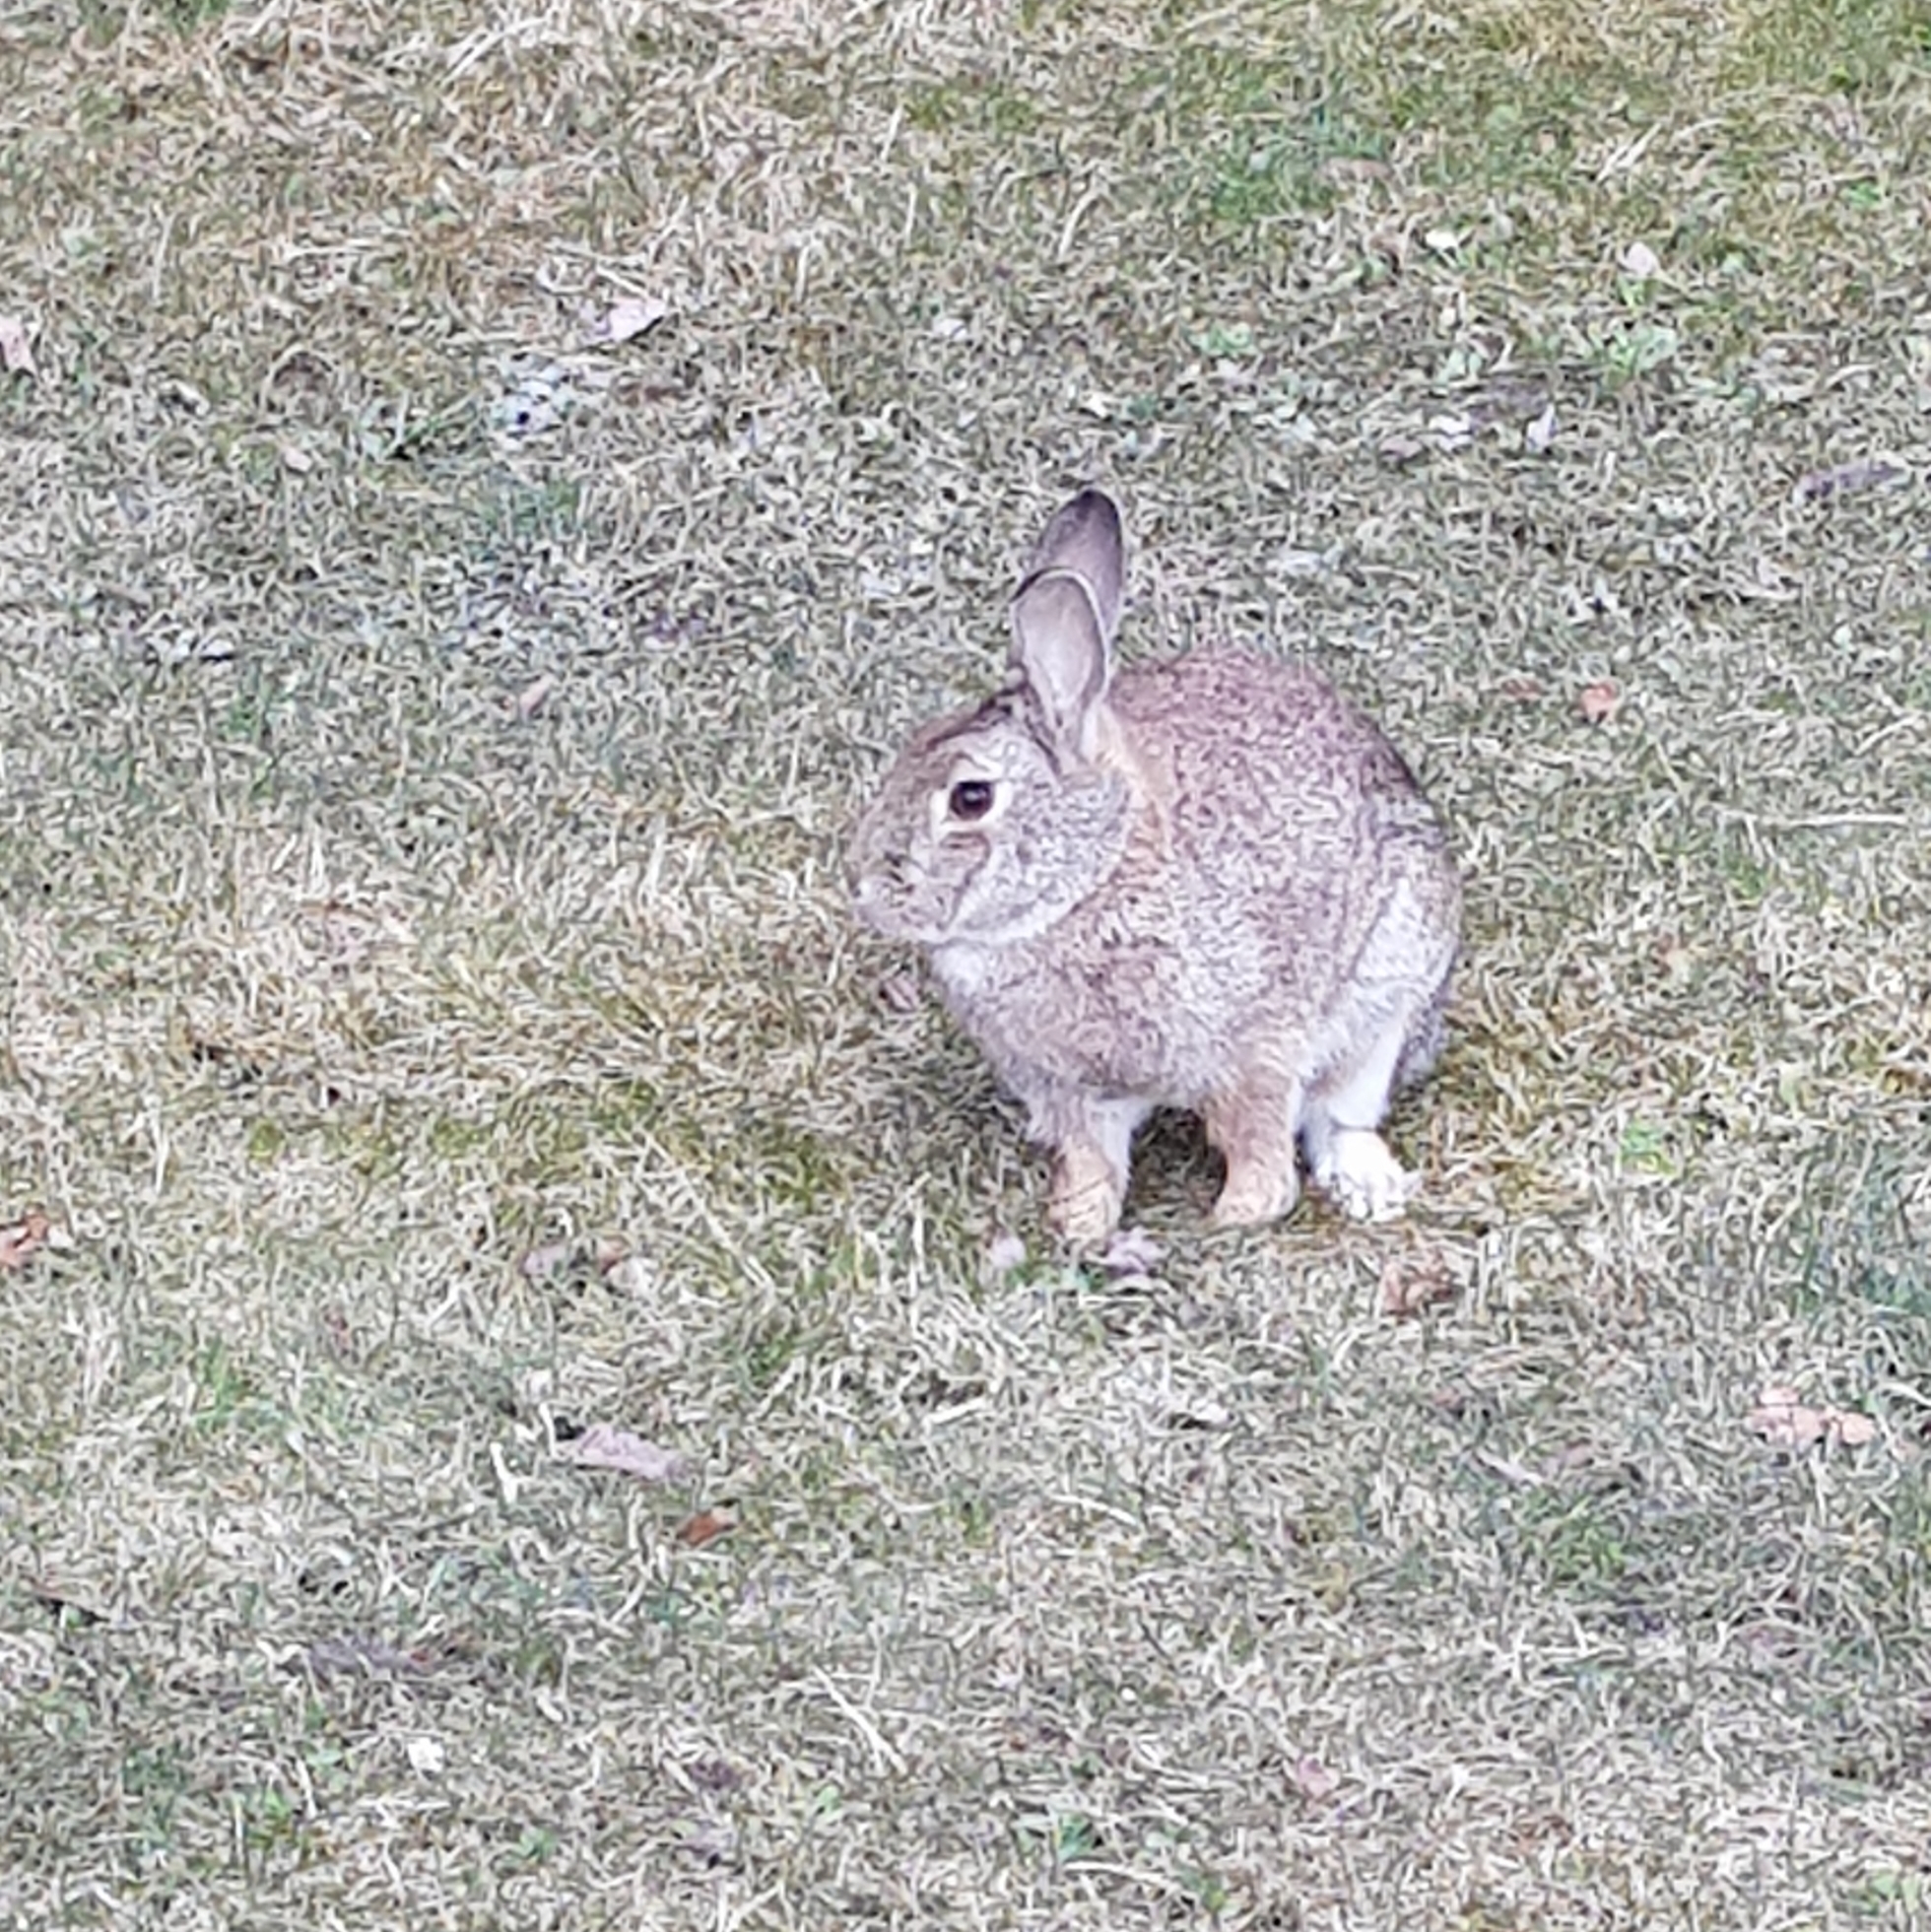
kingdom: Animalia
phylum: Chordata
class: Mammalia
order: Lagomorpha
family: Leporidae
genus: Oryctolagus
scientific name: Oryctolagus cuniculus
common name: European rabbit
